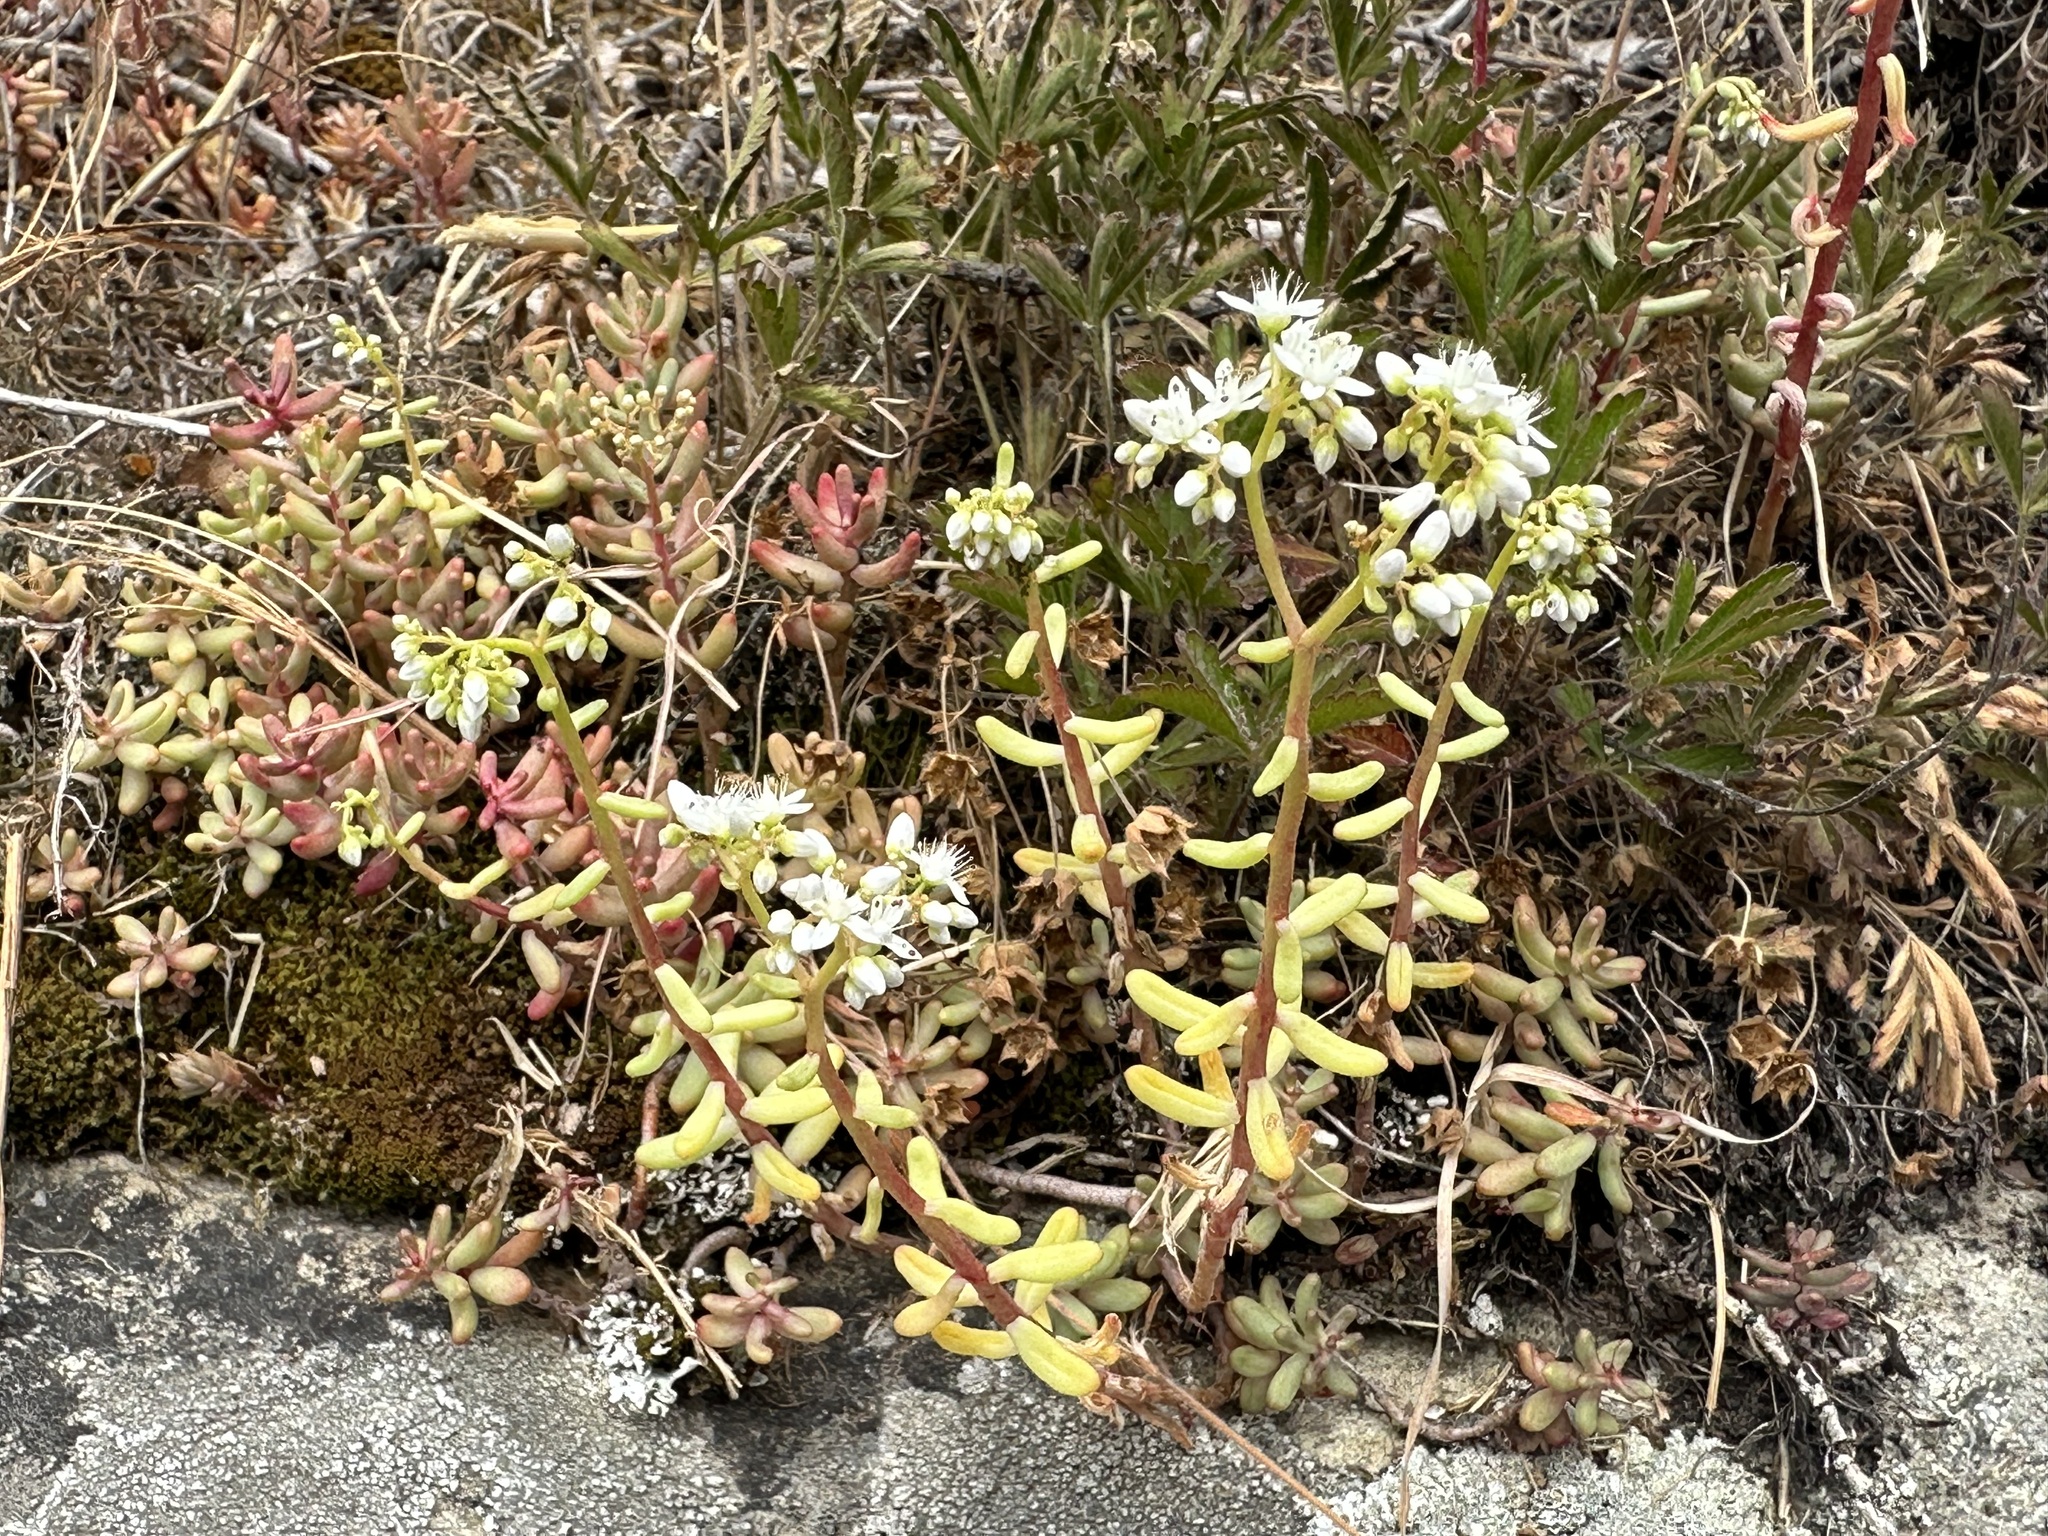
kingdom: Plantae
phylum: Tracheophyta
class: Magnoliopsida
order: Saxifragales
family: Crassulaceae
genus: Sedum
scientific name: Sedum album
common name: White stonecrop
